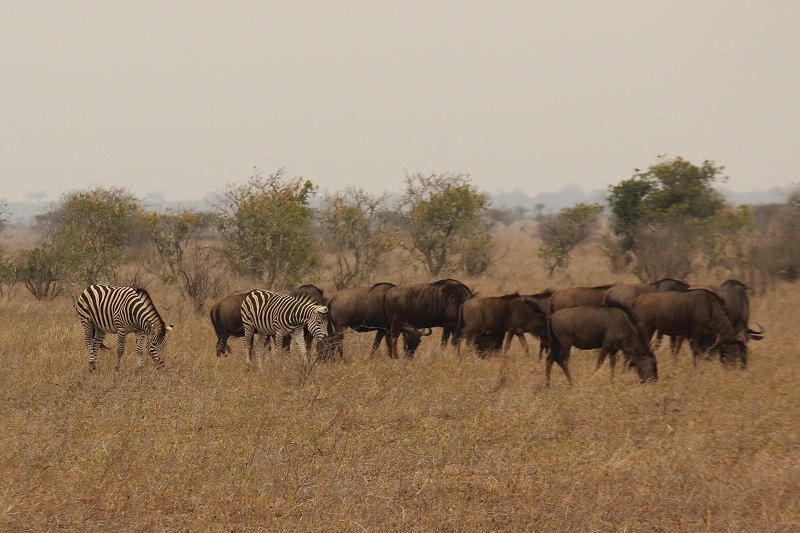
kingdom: Animalia
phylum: Chordata
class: Mammalia
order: Artiodactyla
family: Bovidae
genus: Connochaetes
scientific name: Connochaetes taurinus
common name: Blue wildebeest
